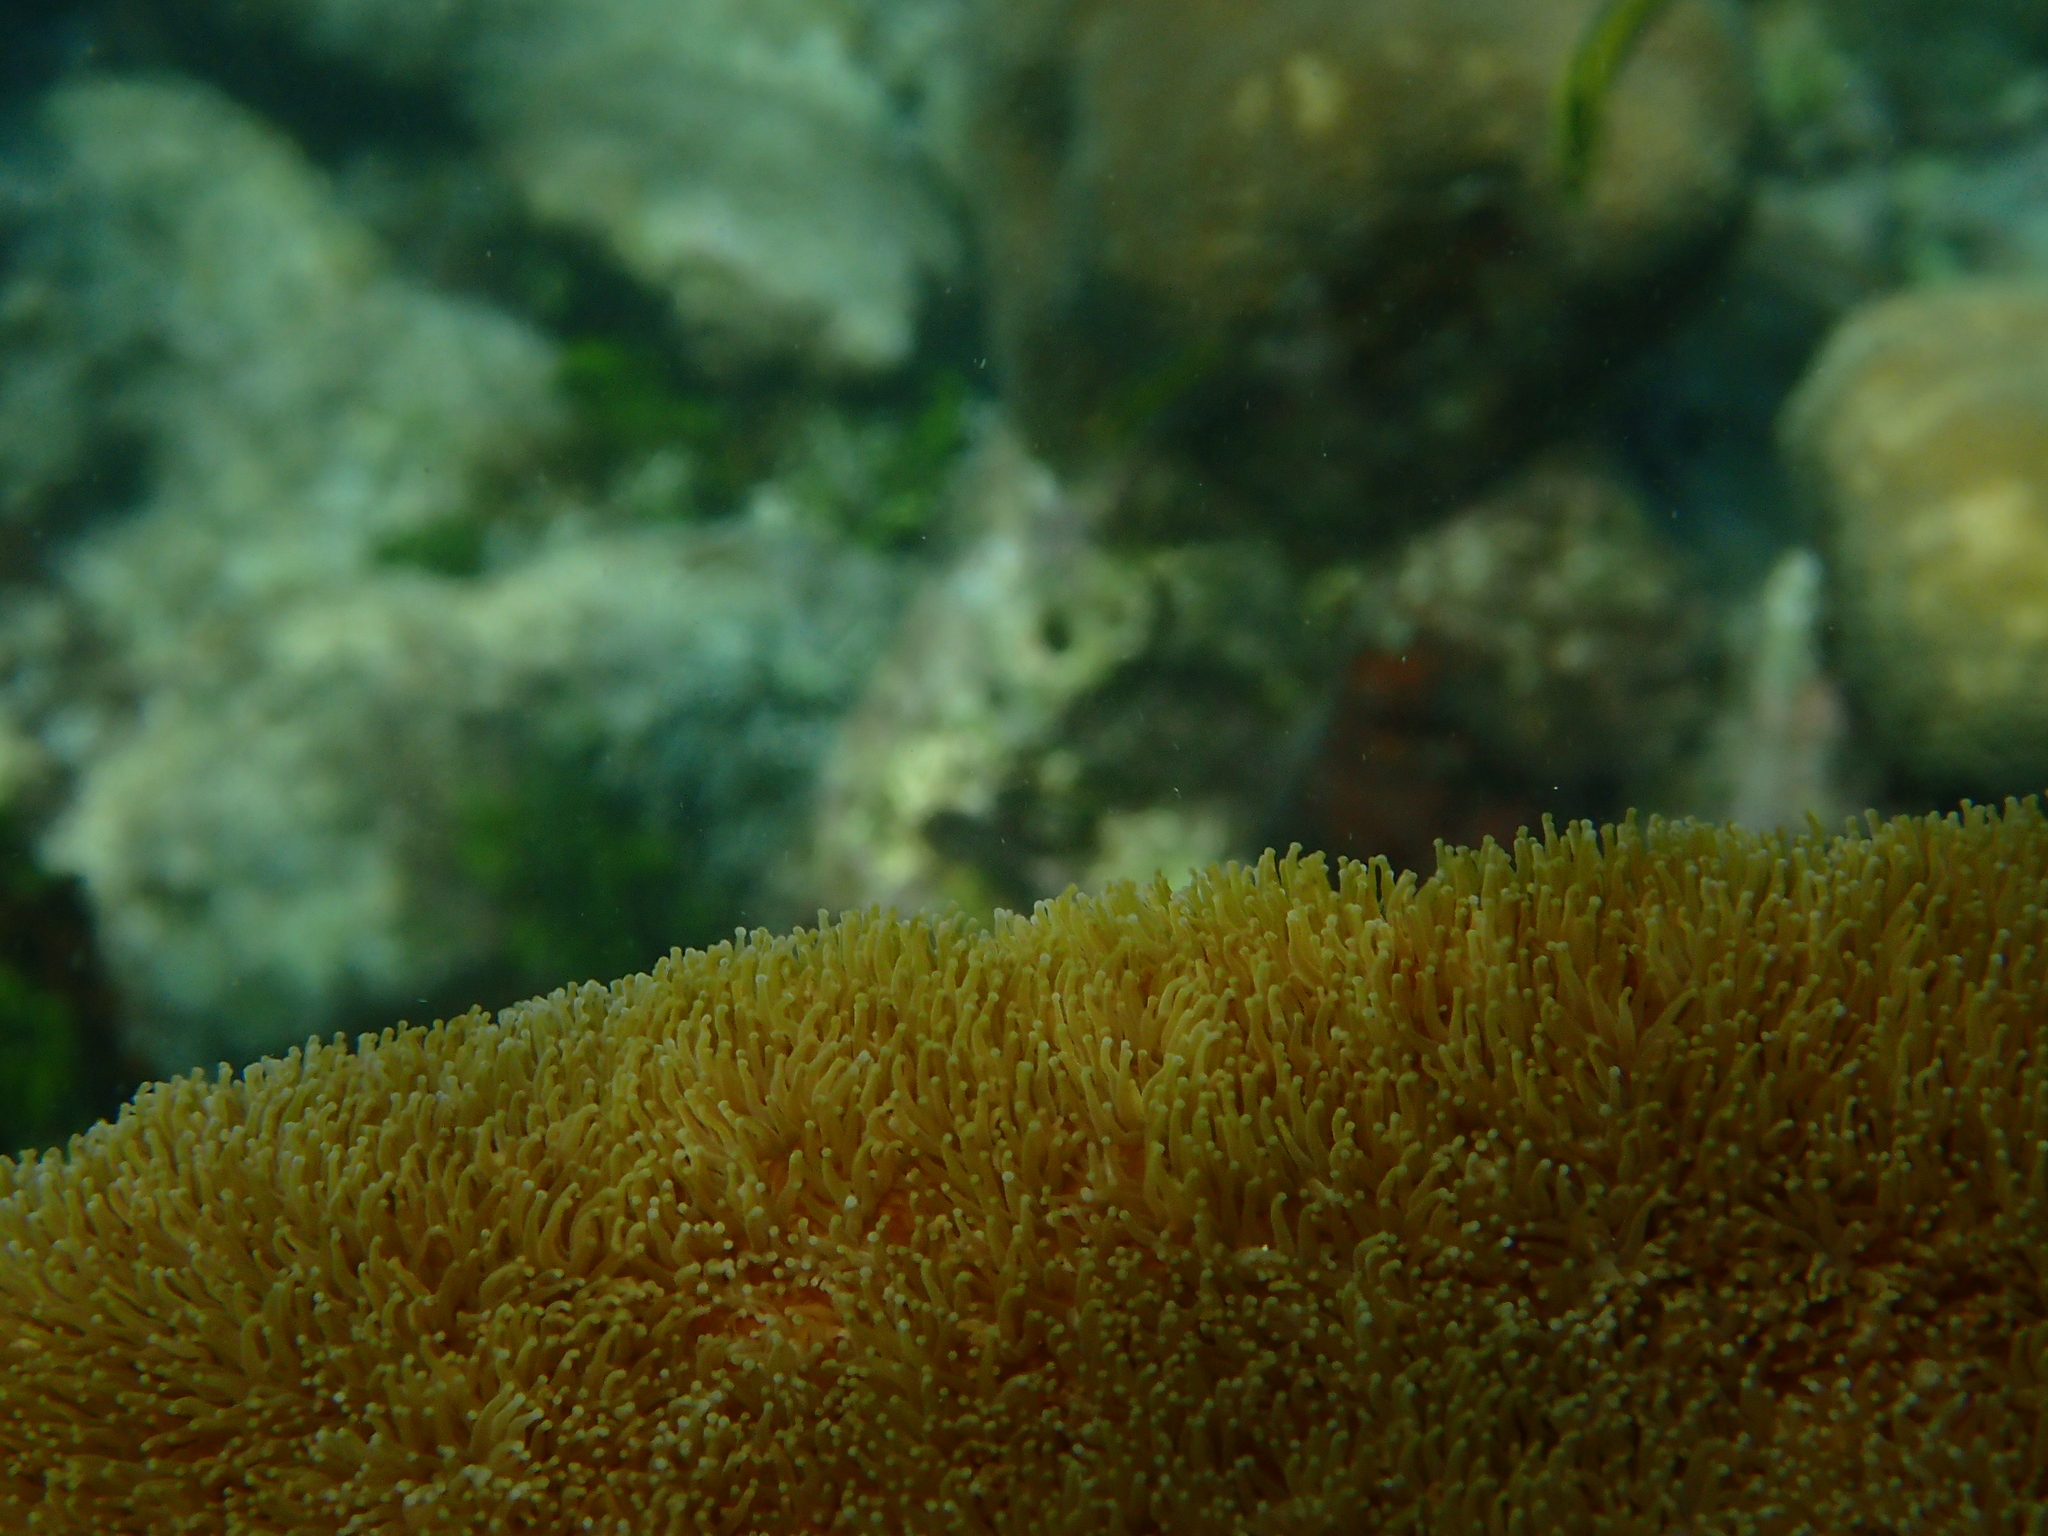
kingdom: Animalia
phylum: Cnidaria
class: Anthozoa
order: Scleractinia
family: Meandrinidae
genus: Dendrogyra
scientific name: Dendrogyra cylindrus
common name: Pillar coral
